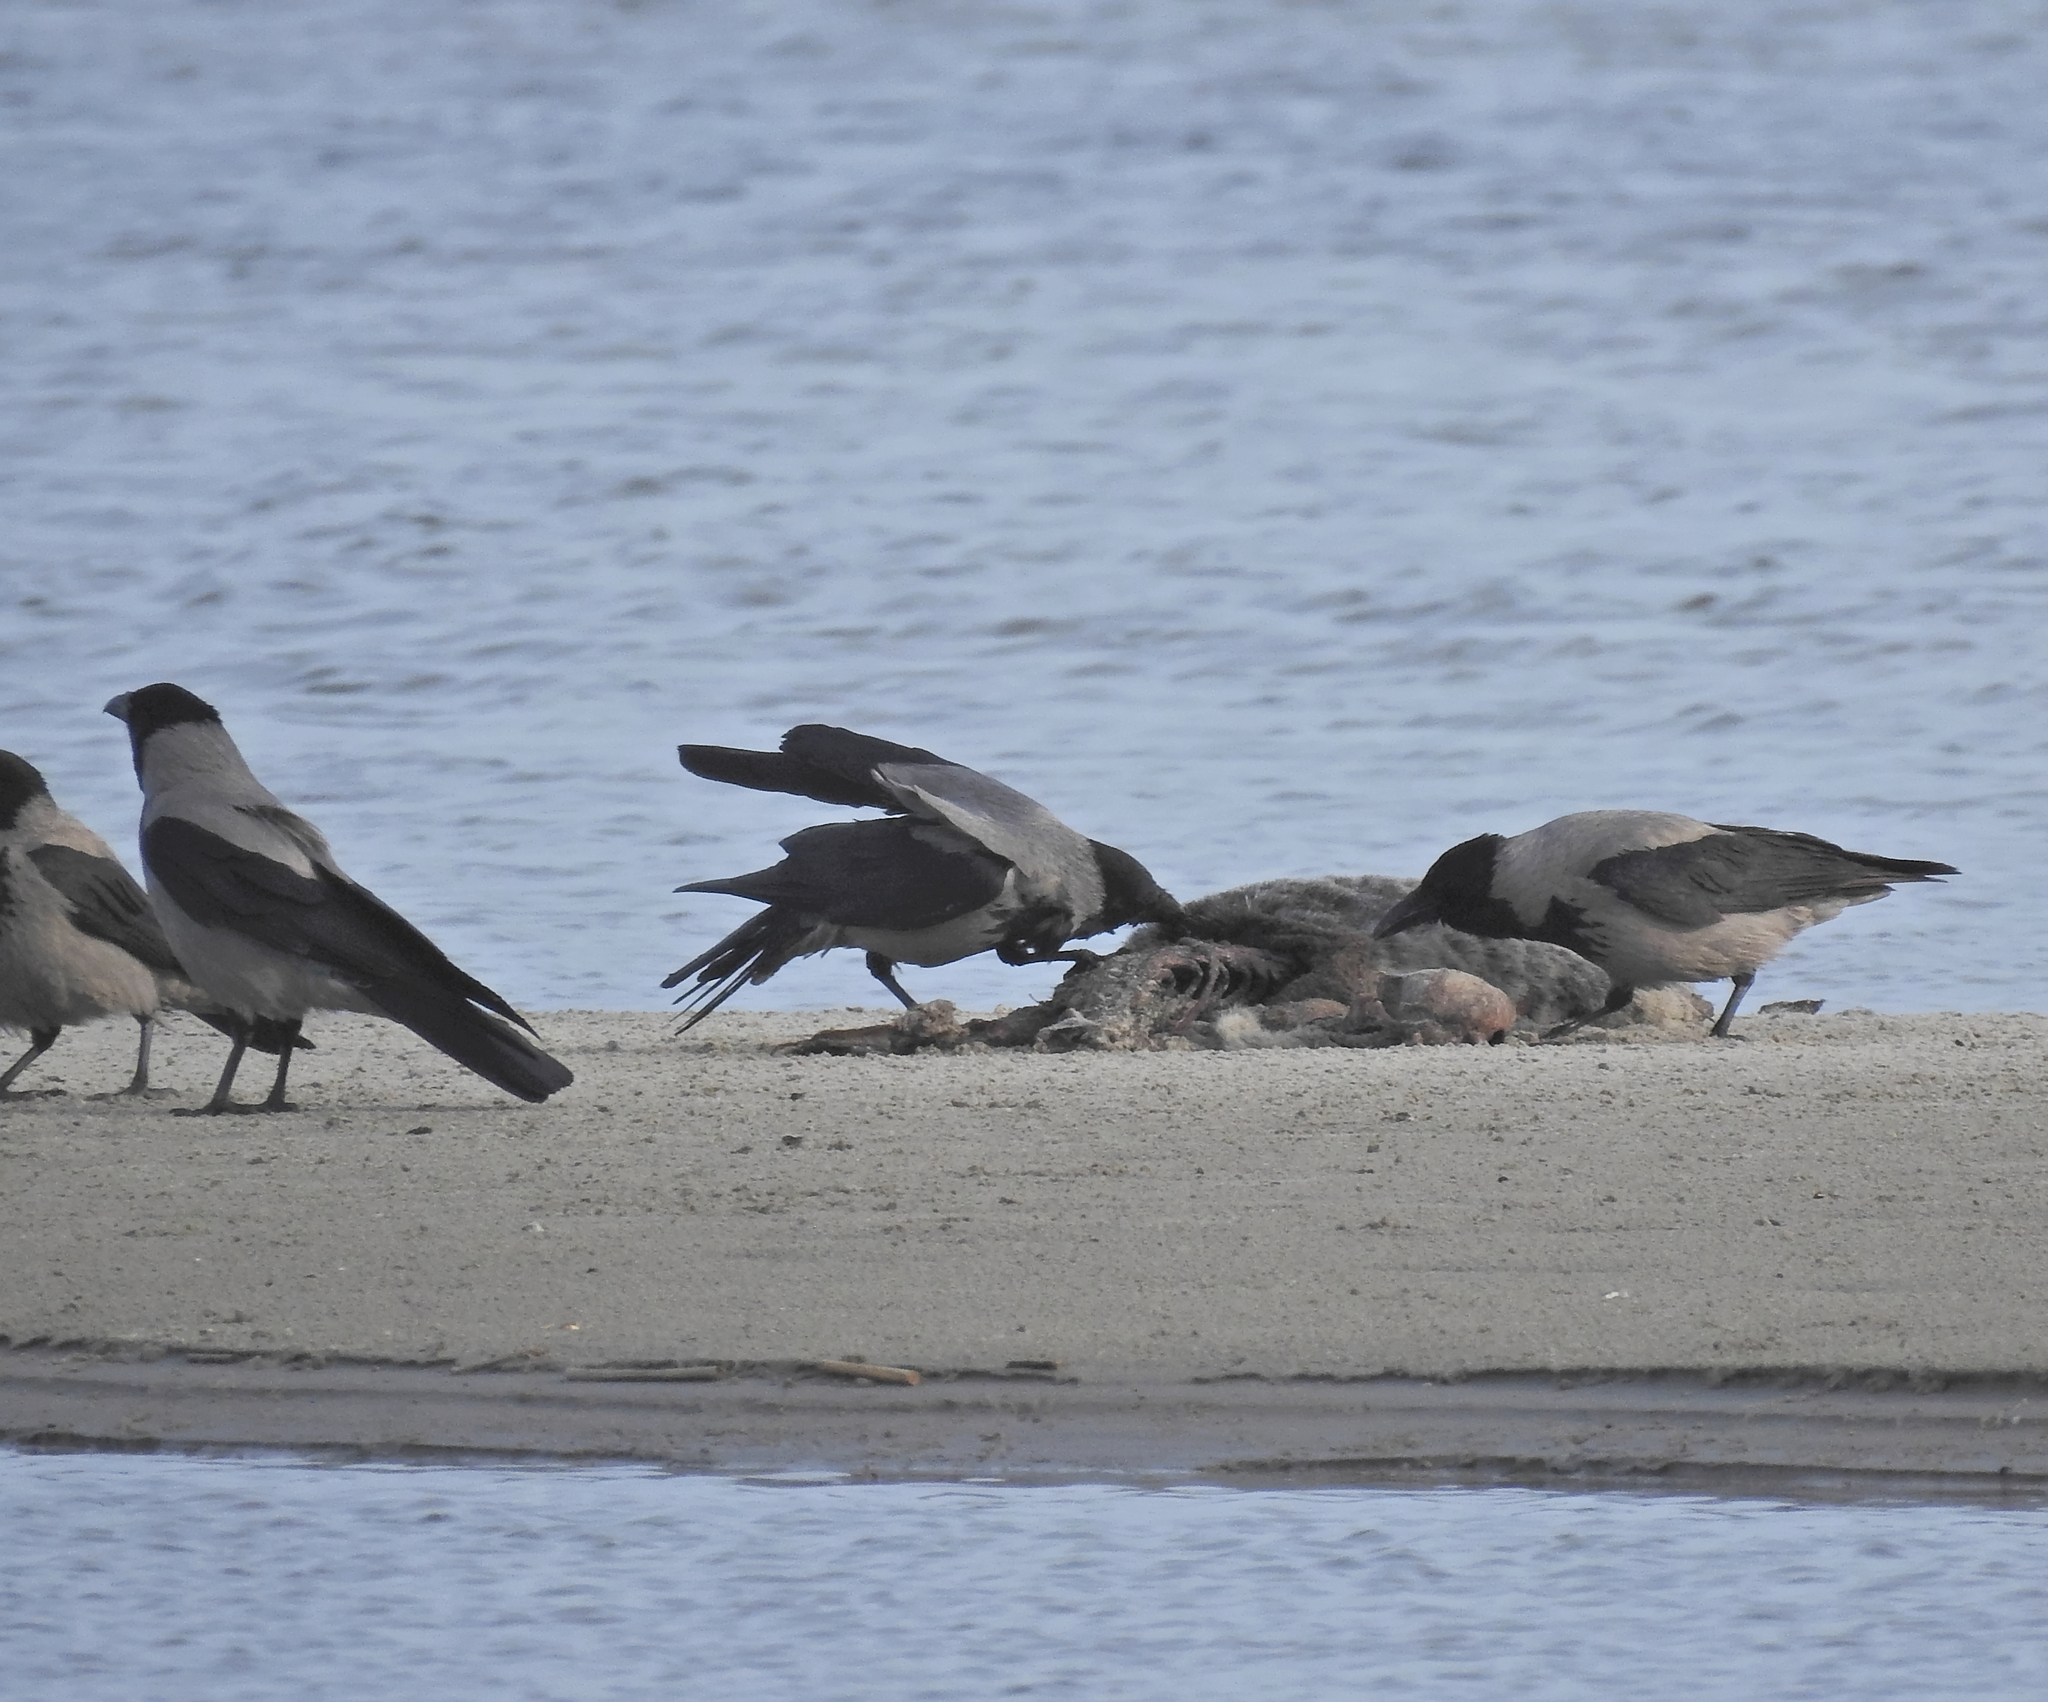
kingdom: Animalia
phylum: Chordata
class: Aves
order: Passeriformes
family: Corvidae
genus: Corvus
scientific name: Corvus cornix
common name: Hooded crow
